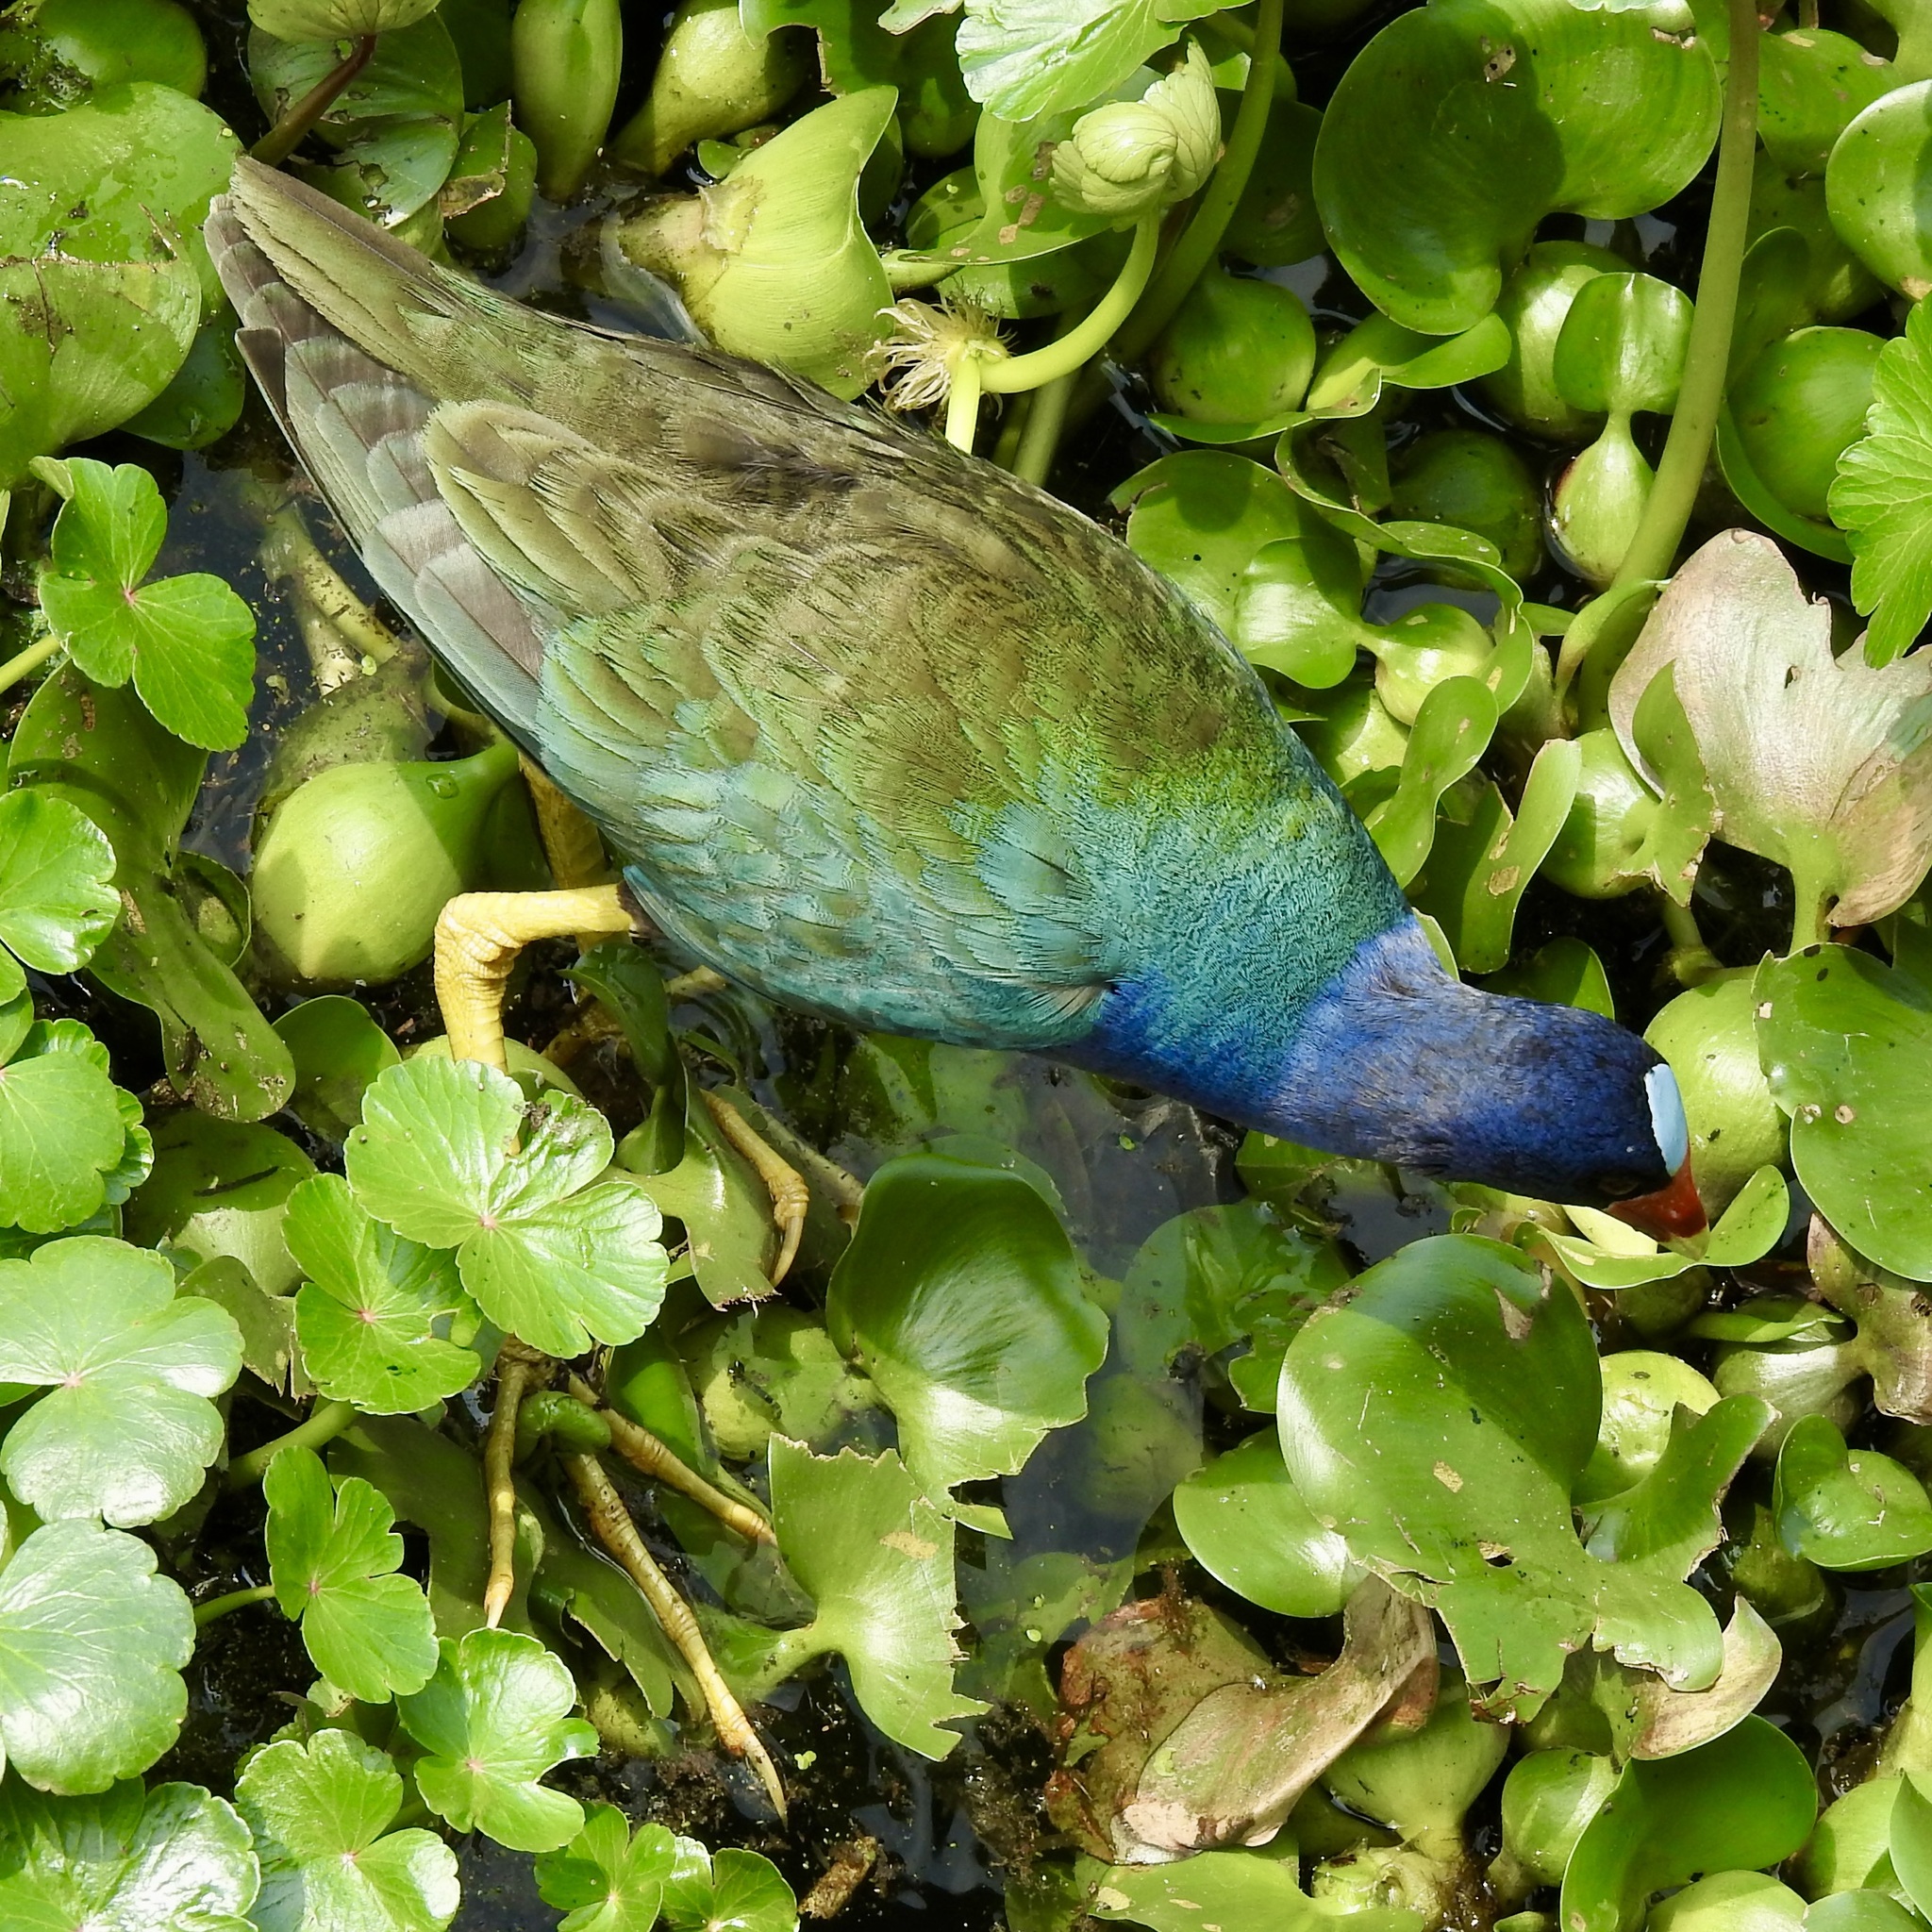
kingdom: Animalia
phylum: Chordata
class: Aves
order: Gruiformes
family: Rallidae
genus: Porphyrio
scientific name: Porphyrio martinica
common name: Purple gallinule
